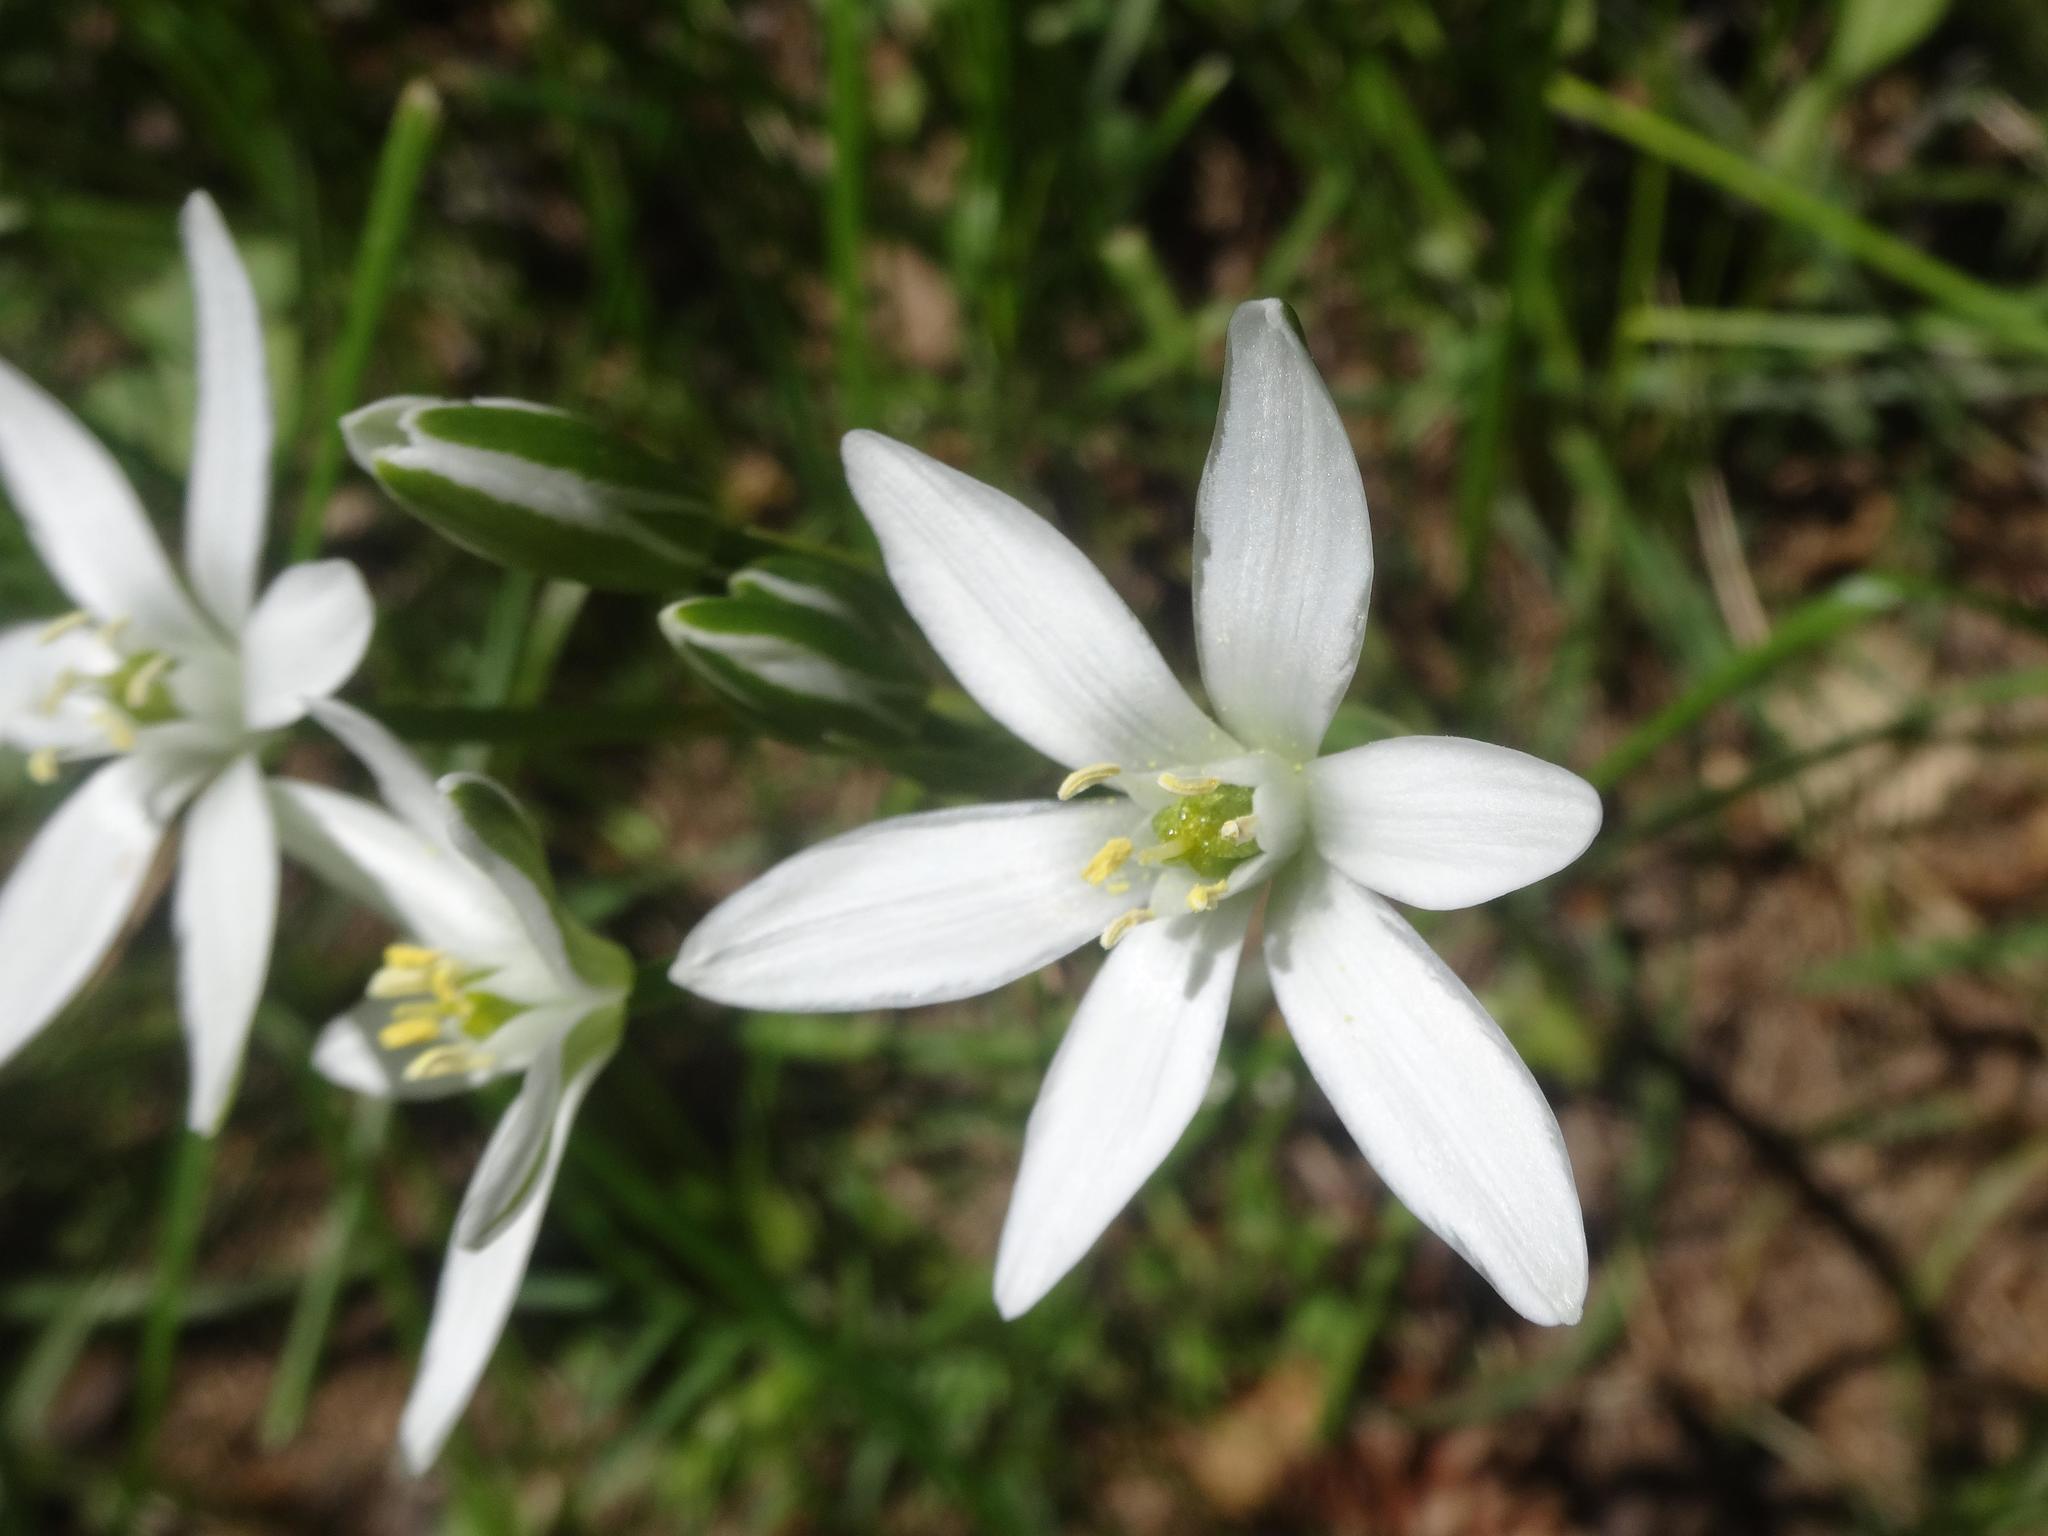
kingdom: Plantae
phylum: Tracheophyta
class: Liliopsida
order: Asparagales
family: Asparagaceae
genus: Ornithogalum
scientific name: Ornithogalum umbellatum
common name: Garden star-of-bethlehem
